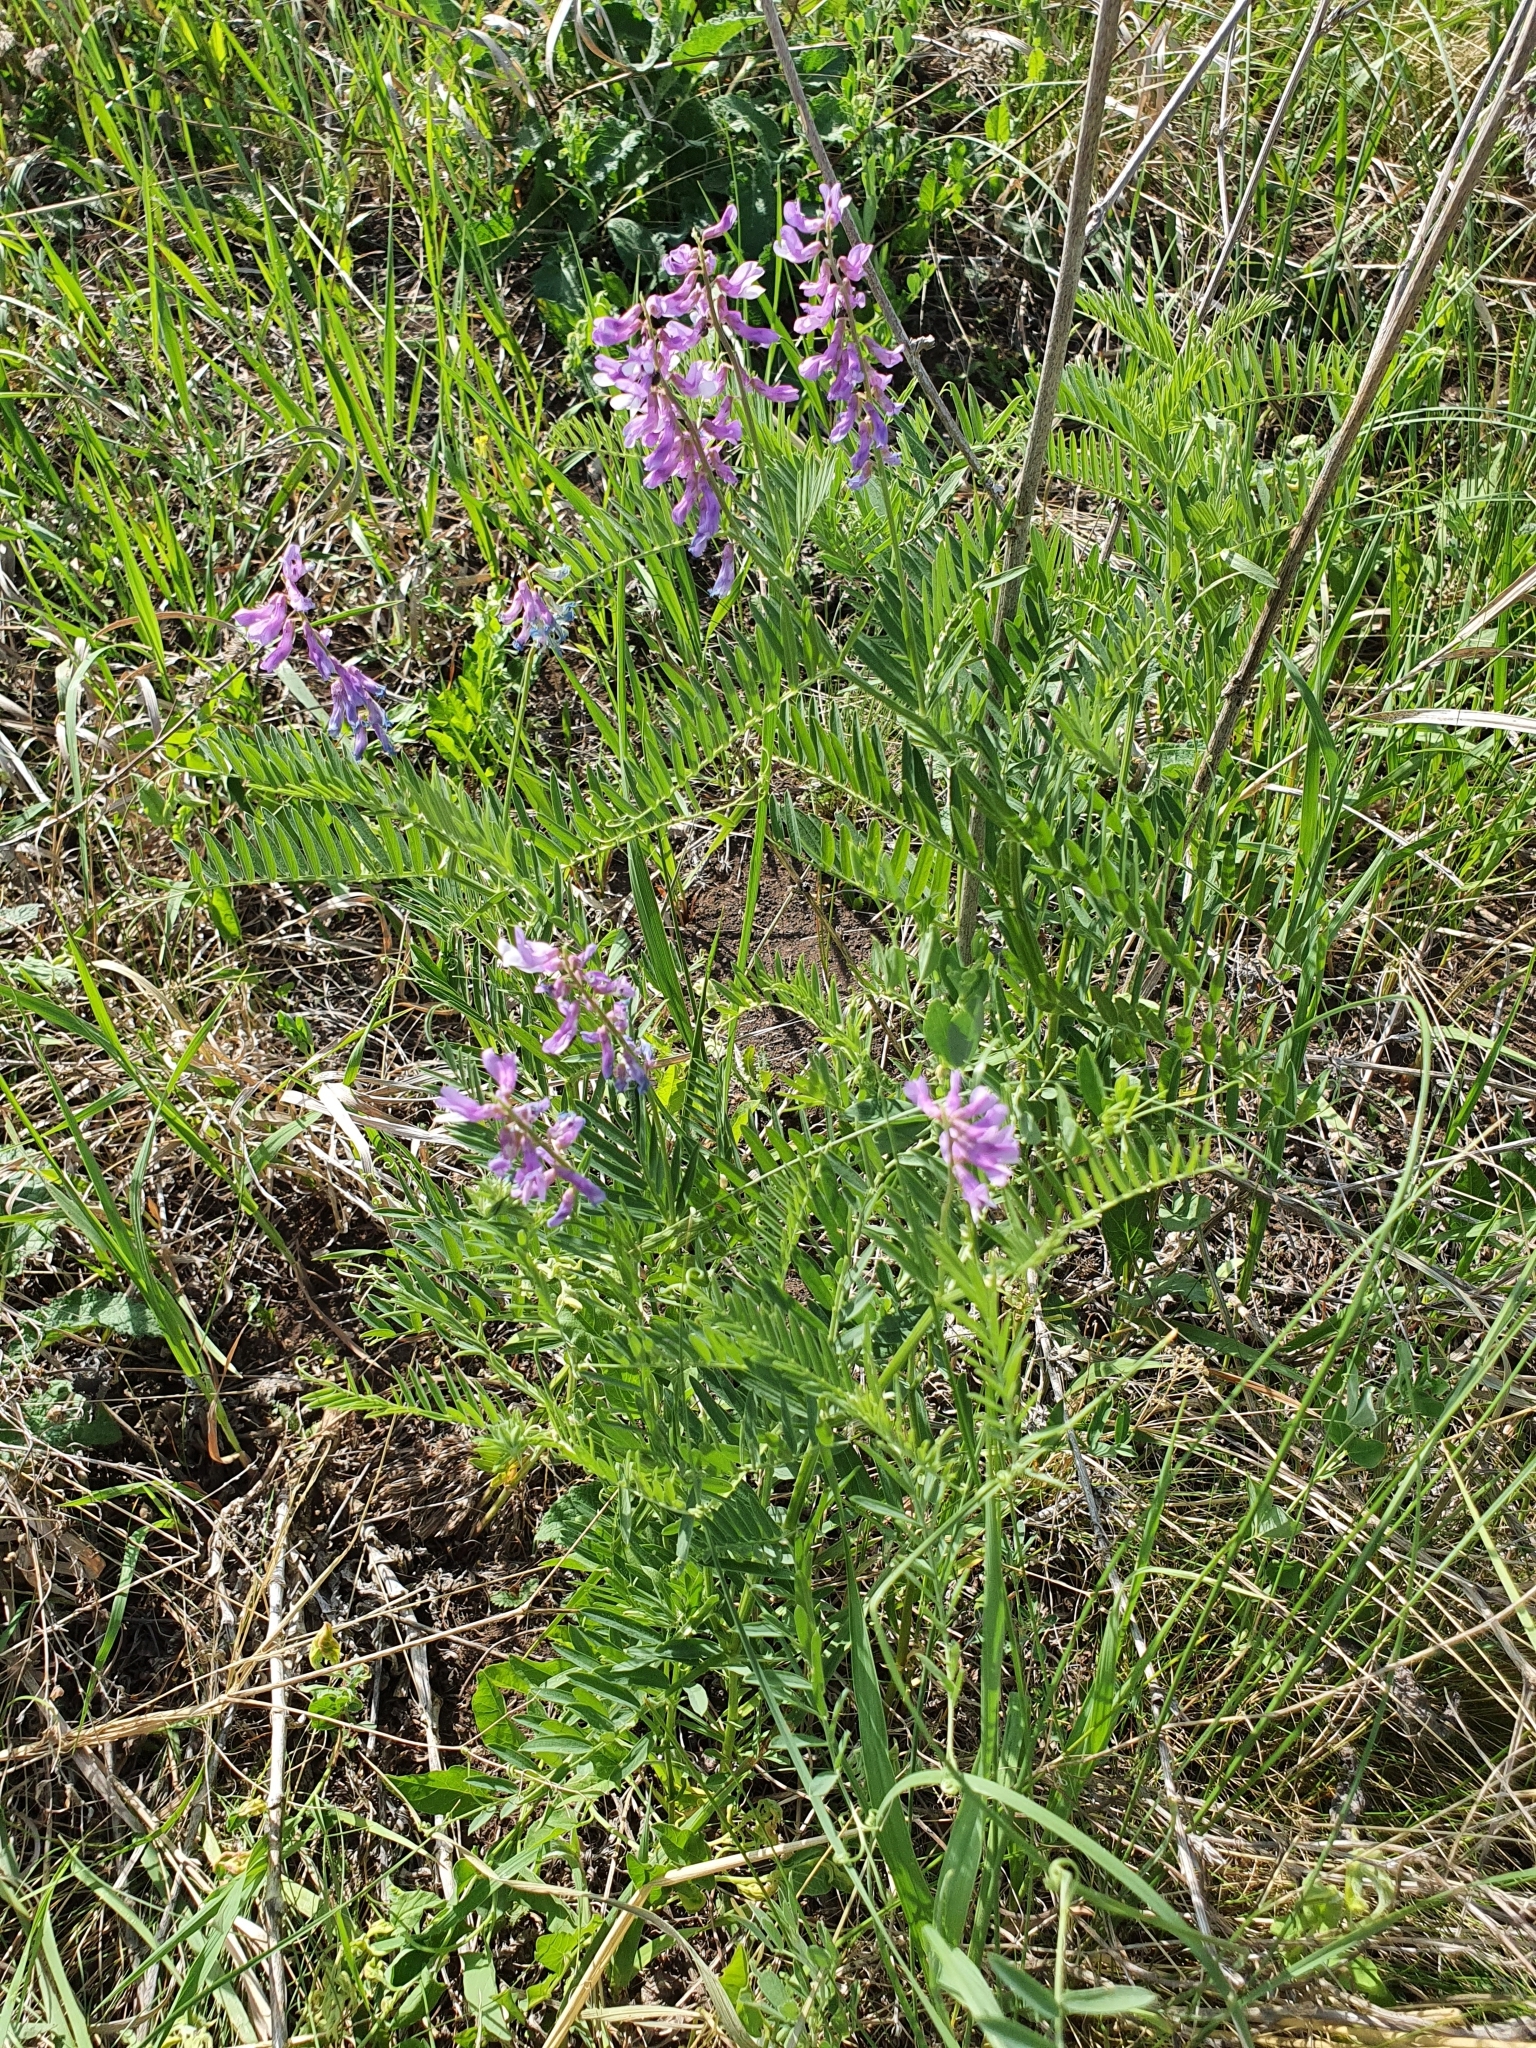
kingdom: Plantae
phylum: Tracheophyta
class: Magnoliopsida
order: Fabales
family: Fabaceae
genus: Vicia
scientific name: Vicia tenuifolia
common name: Fine-leaved vetch
